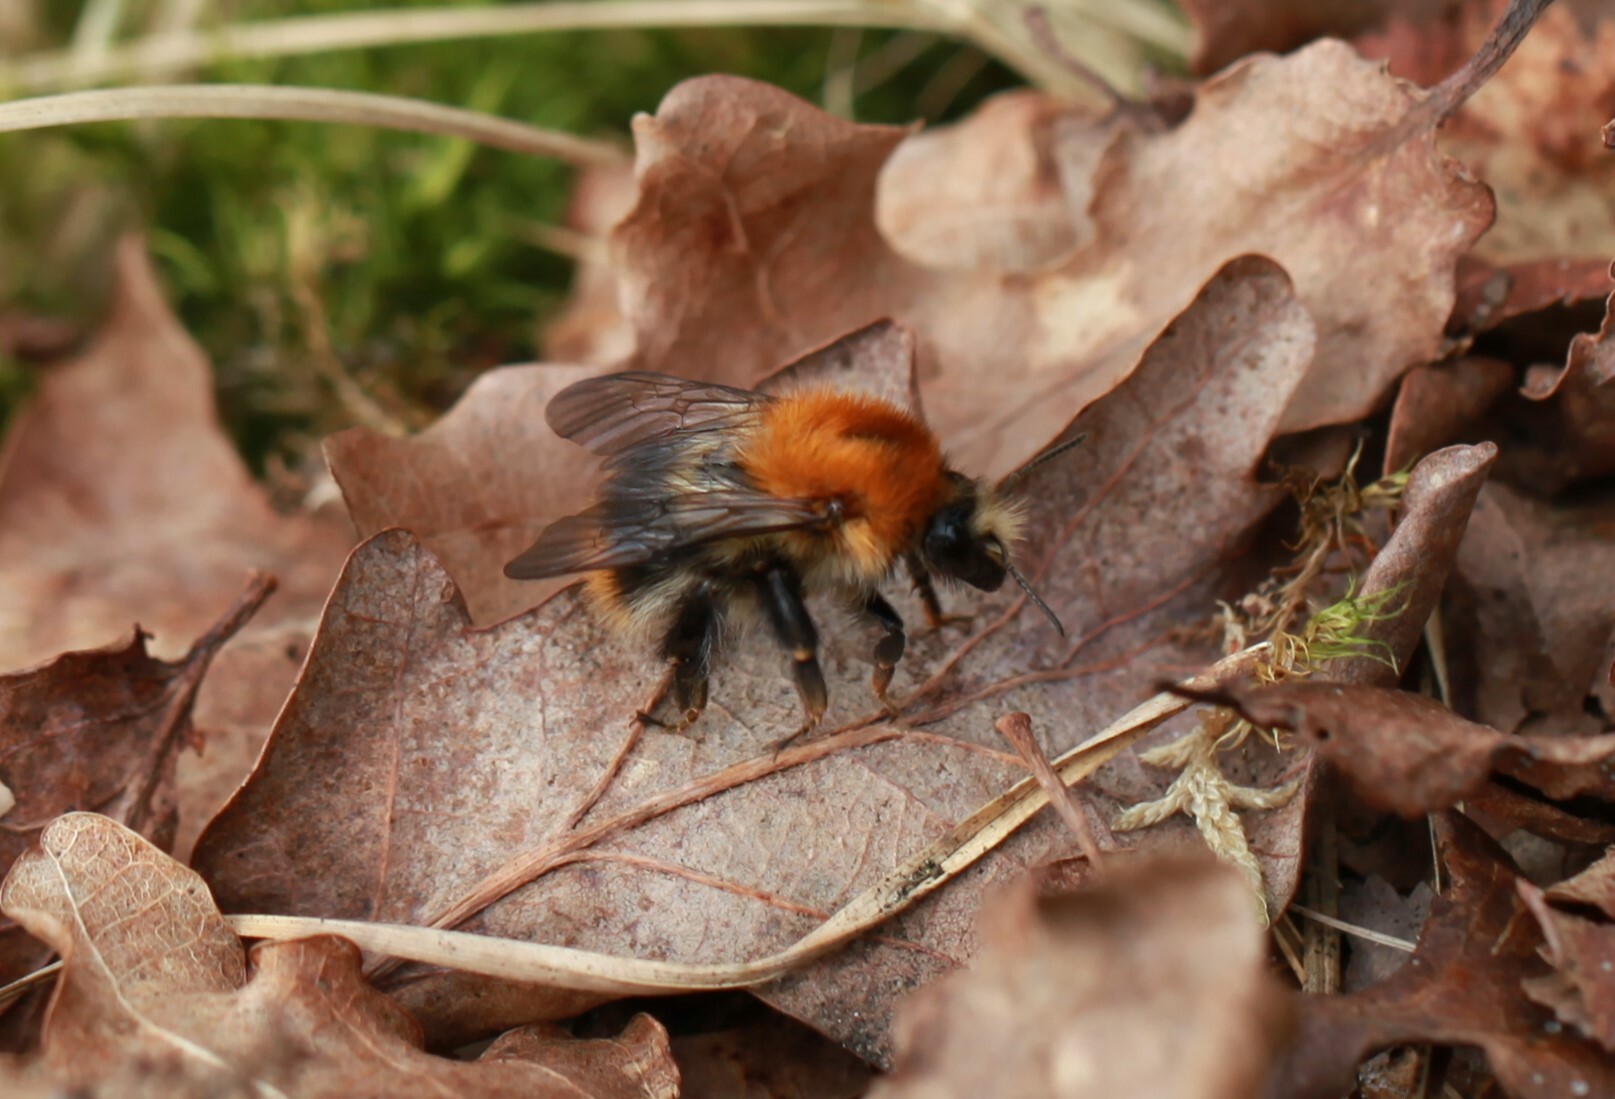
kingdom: Animalia
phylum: Arthropoda
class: Insecta
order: Hymenoptera
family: Apidae
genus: Bombus
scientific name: Bombus pascuorum
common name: Common carder bee
